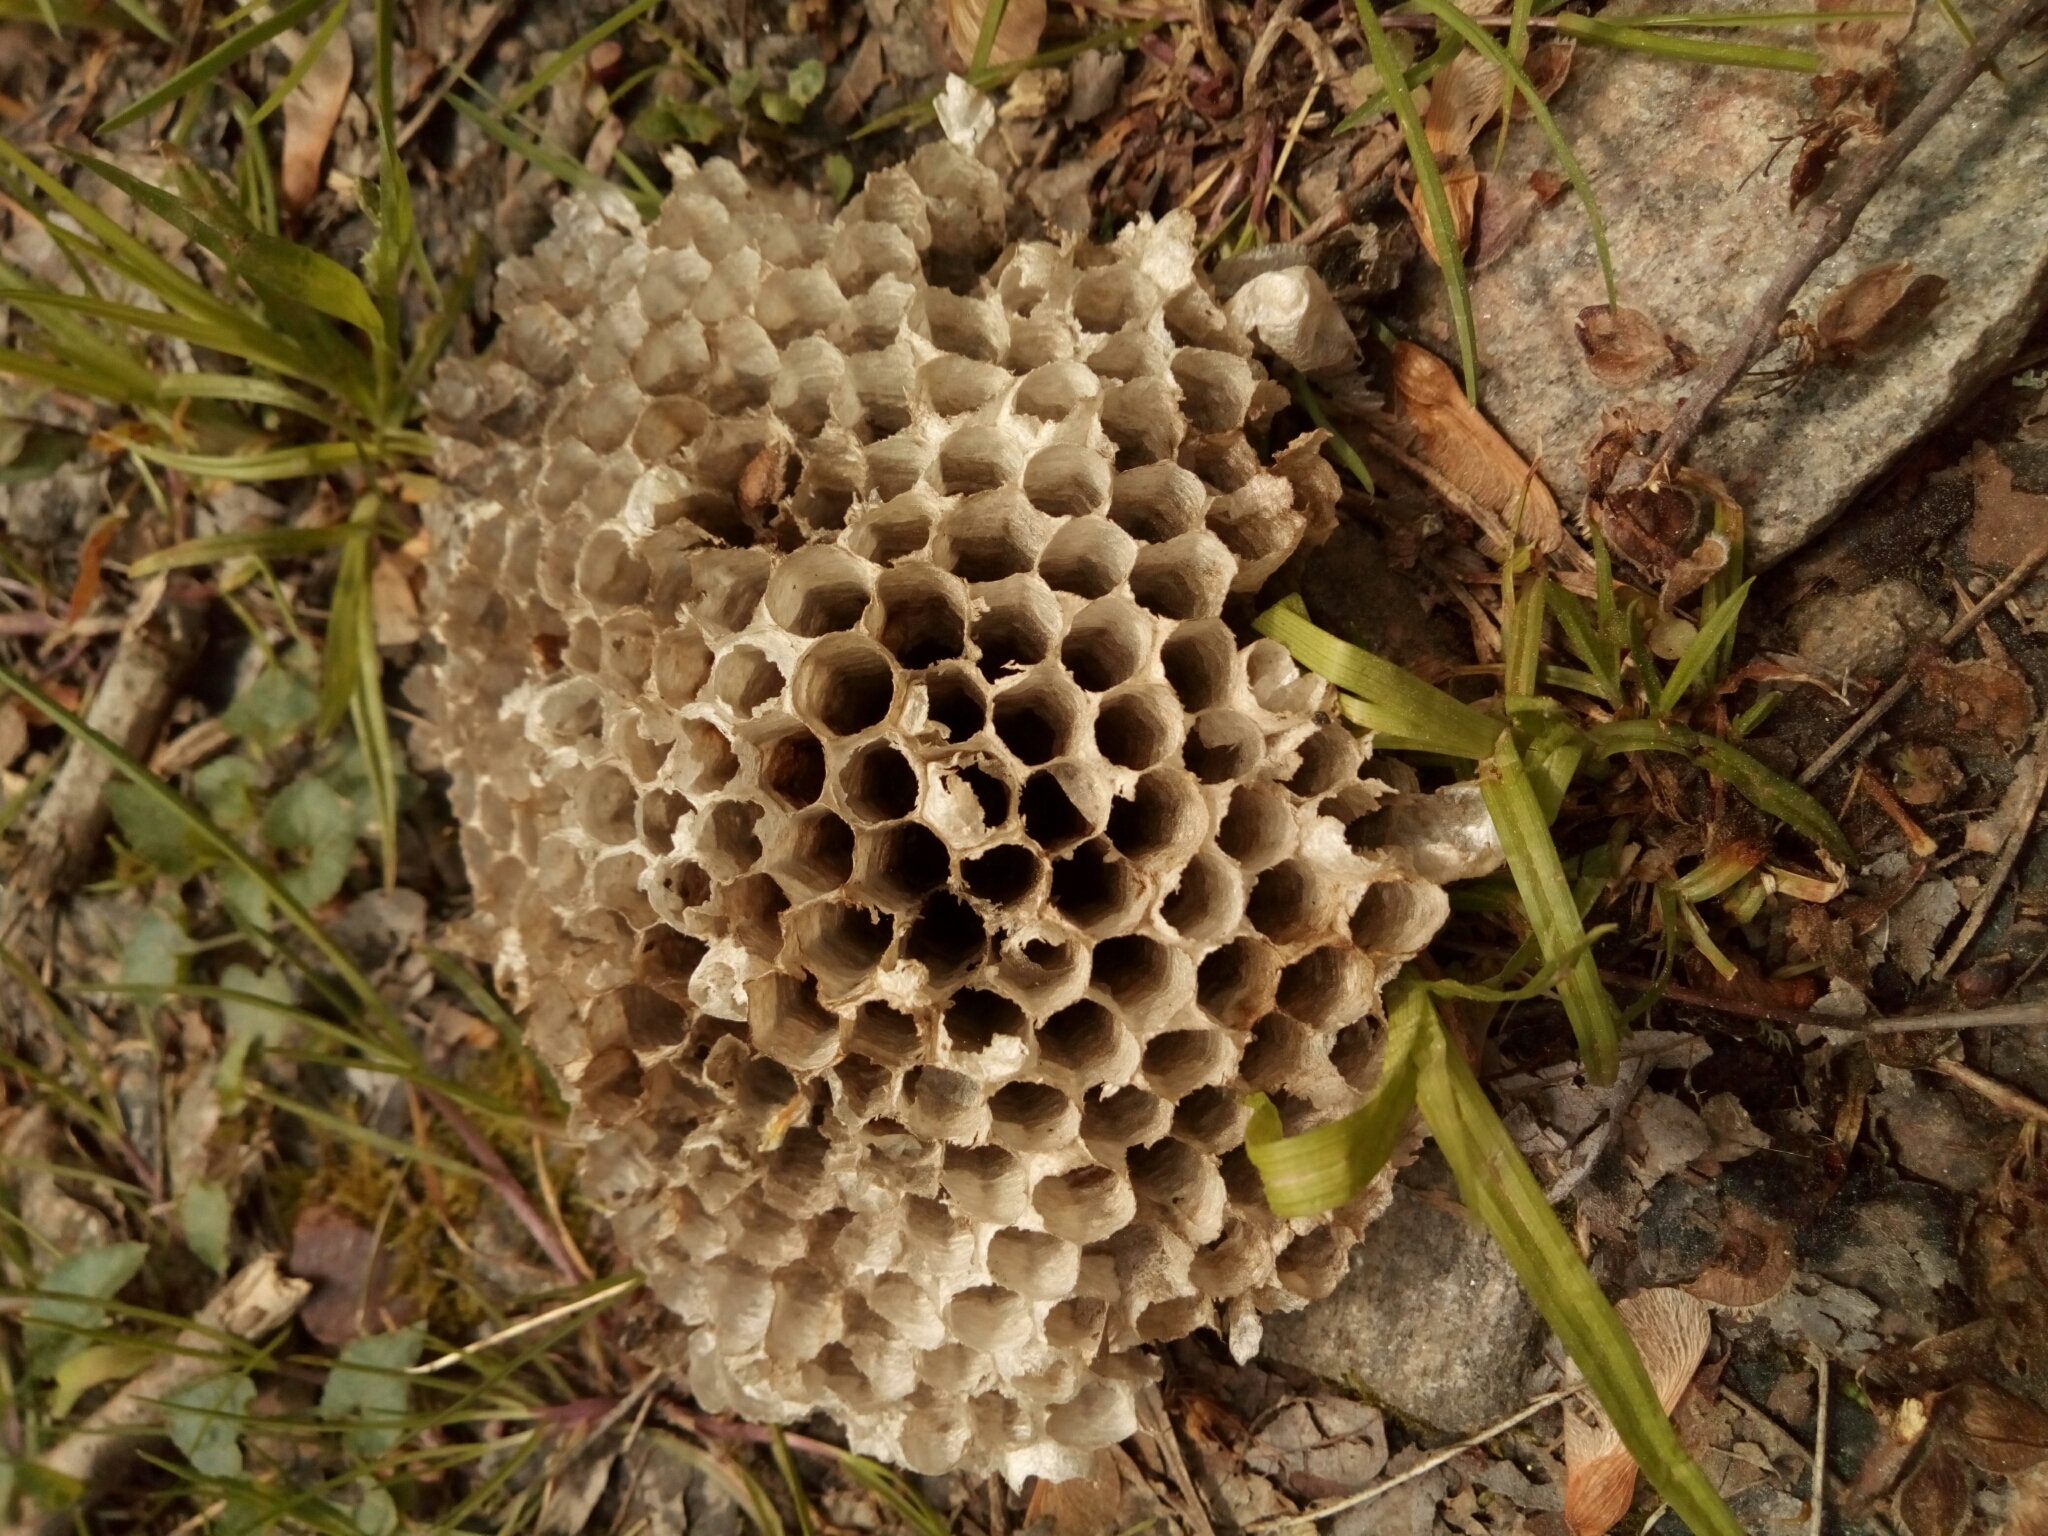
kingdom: Animalia
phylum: Arthropoda
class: Insecta
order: Hymenoptera
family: Eumenidae
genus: Polistes
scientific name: Polistes
